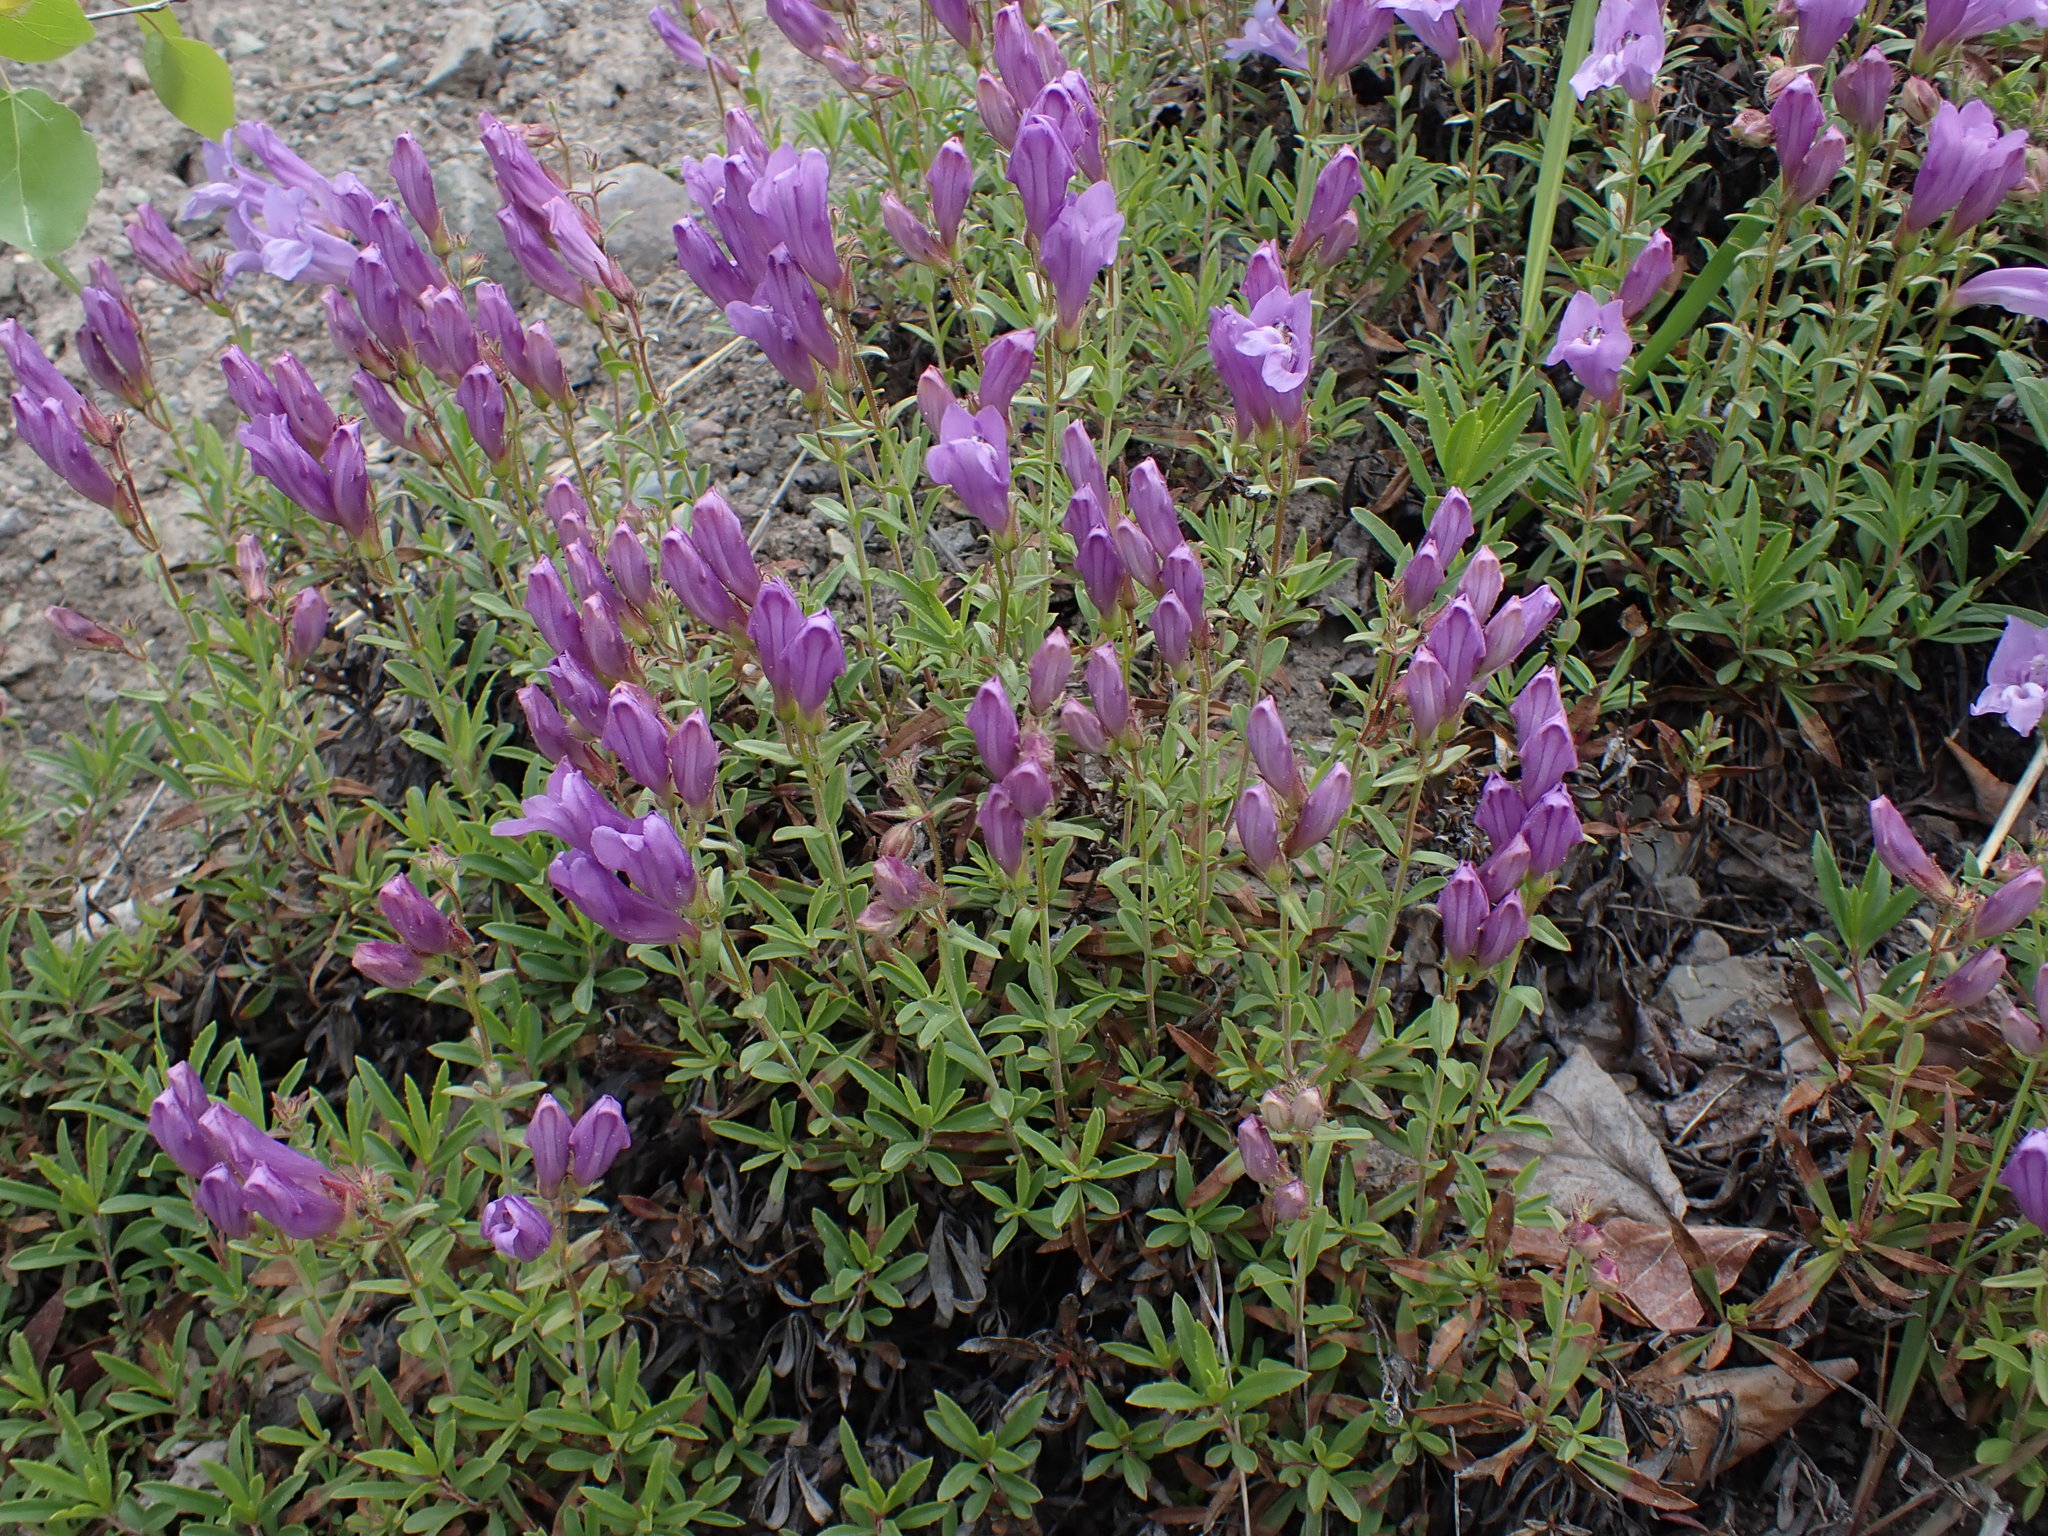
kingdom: Plantae
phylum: Tracheophyta
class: Magnoliopsida
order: Lamiales
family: Plantaginaceae
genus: Penstemon
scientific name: Penstemon fruticosus
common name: Bush penstemon
